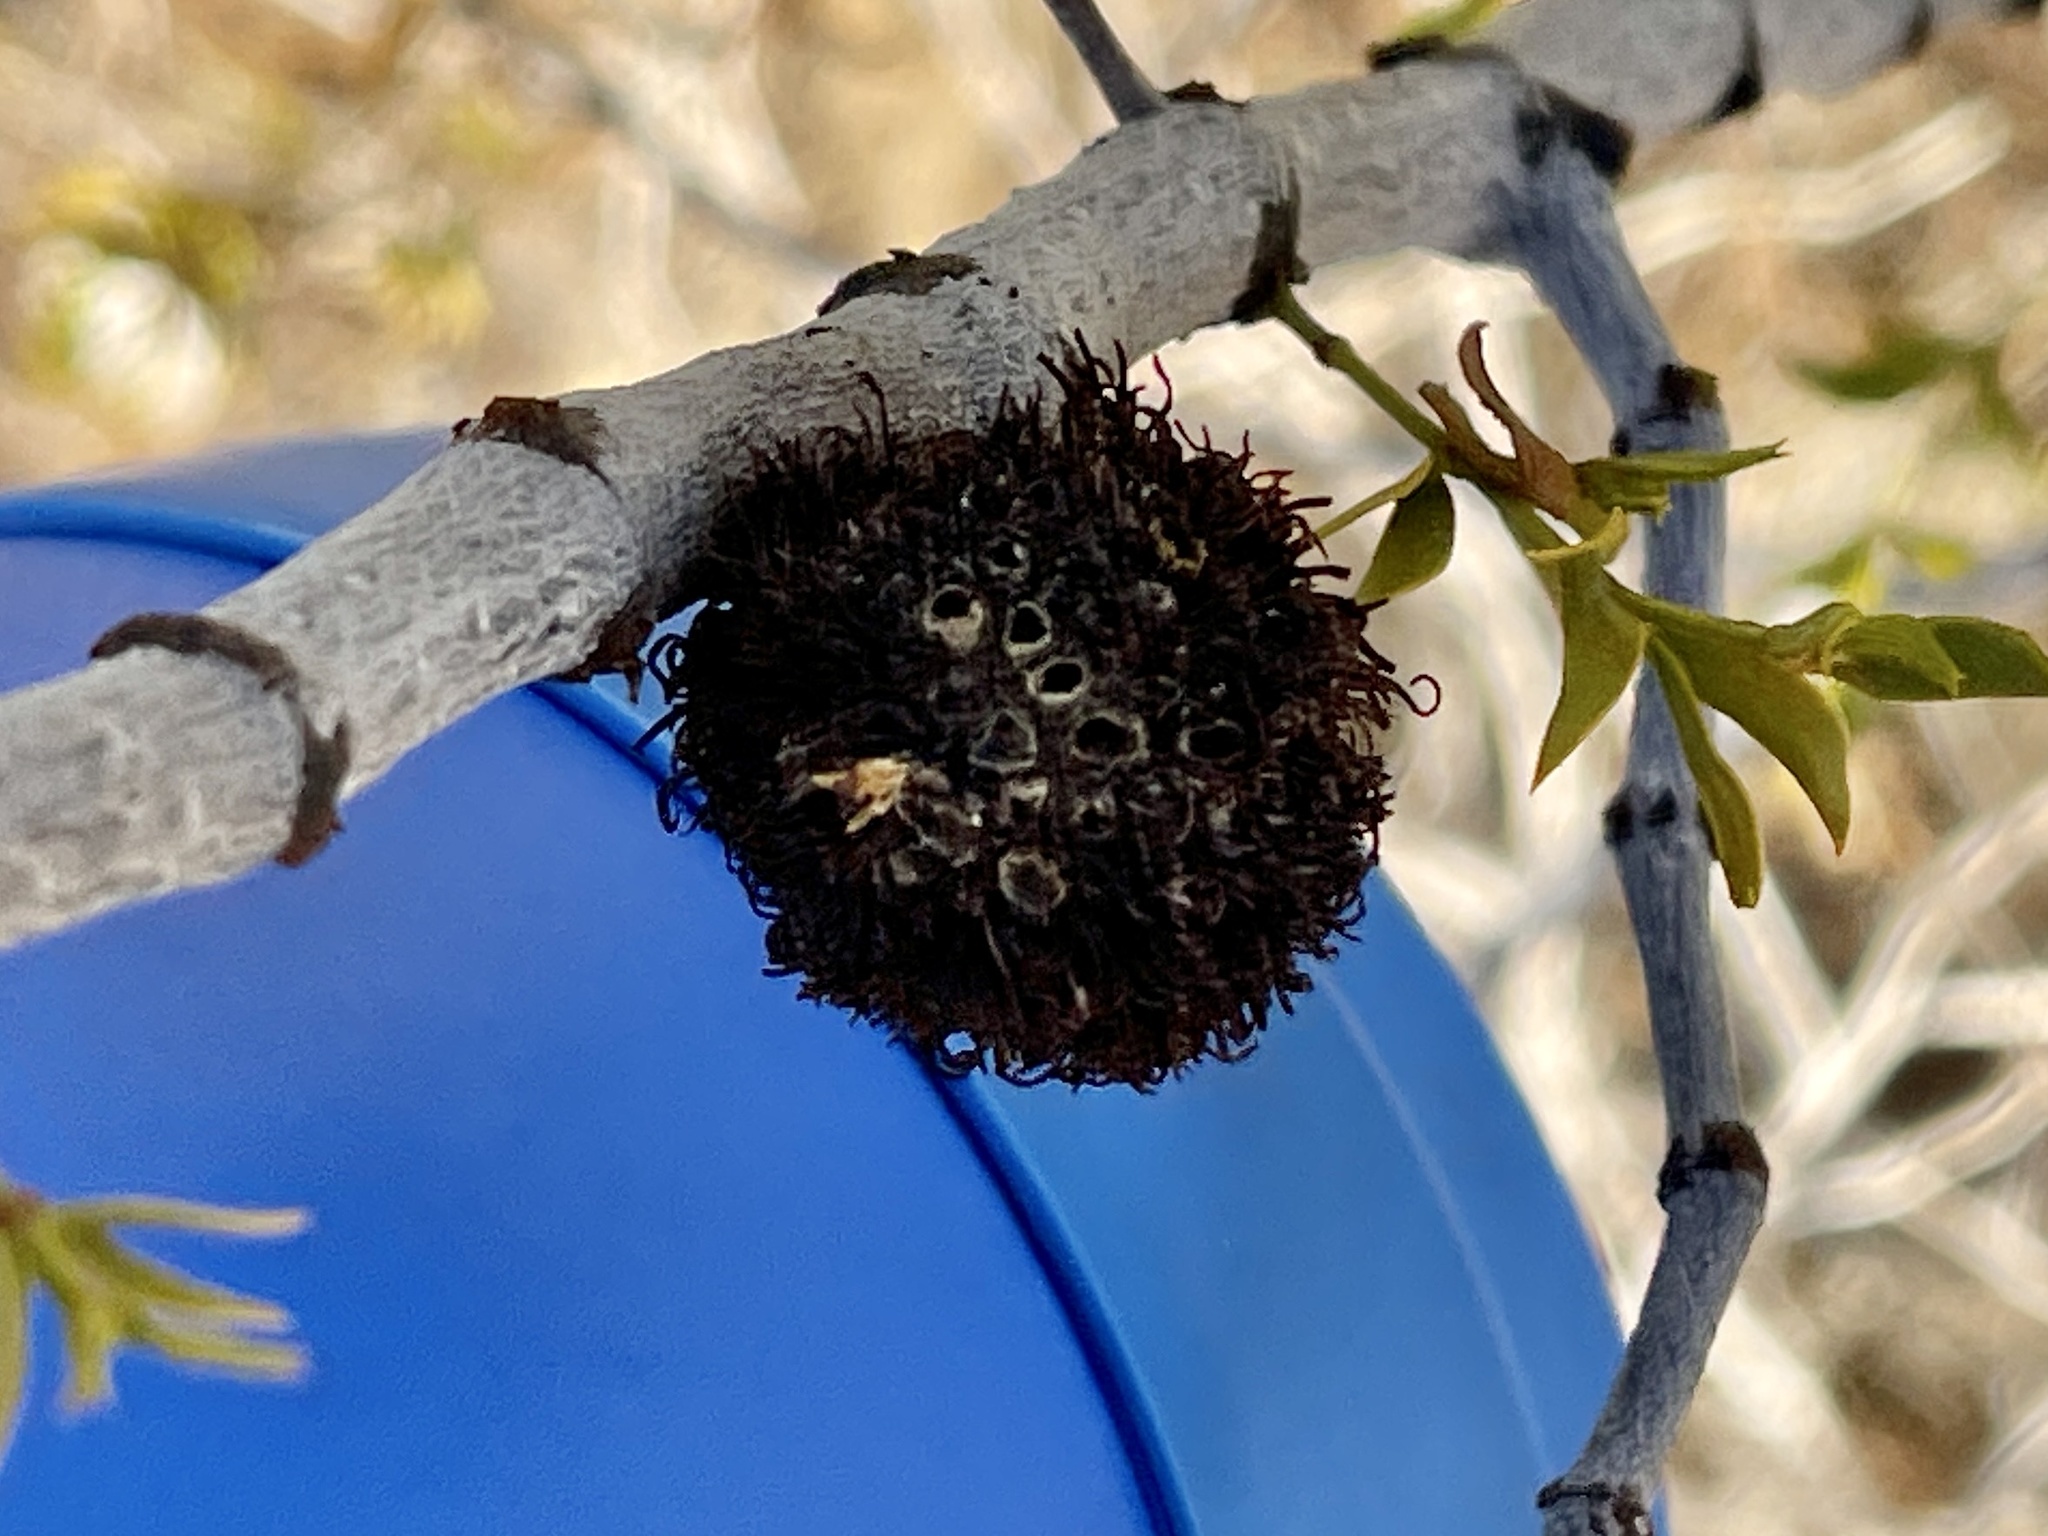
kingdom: Animalia
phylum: Arthropoda
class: Insecta
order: Diptera
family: Cecidomyiidae
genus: Asphondylia
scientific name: Asphondylia auripila
